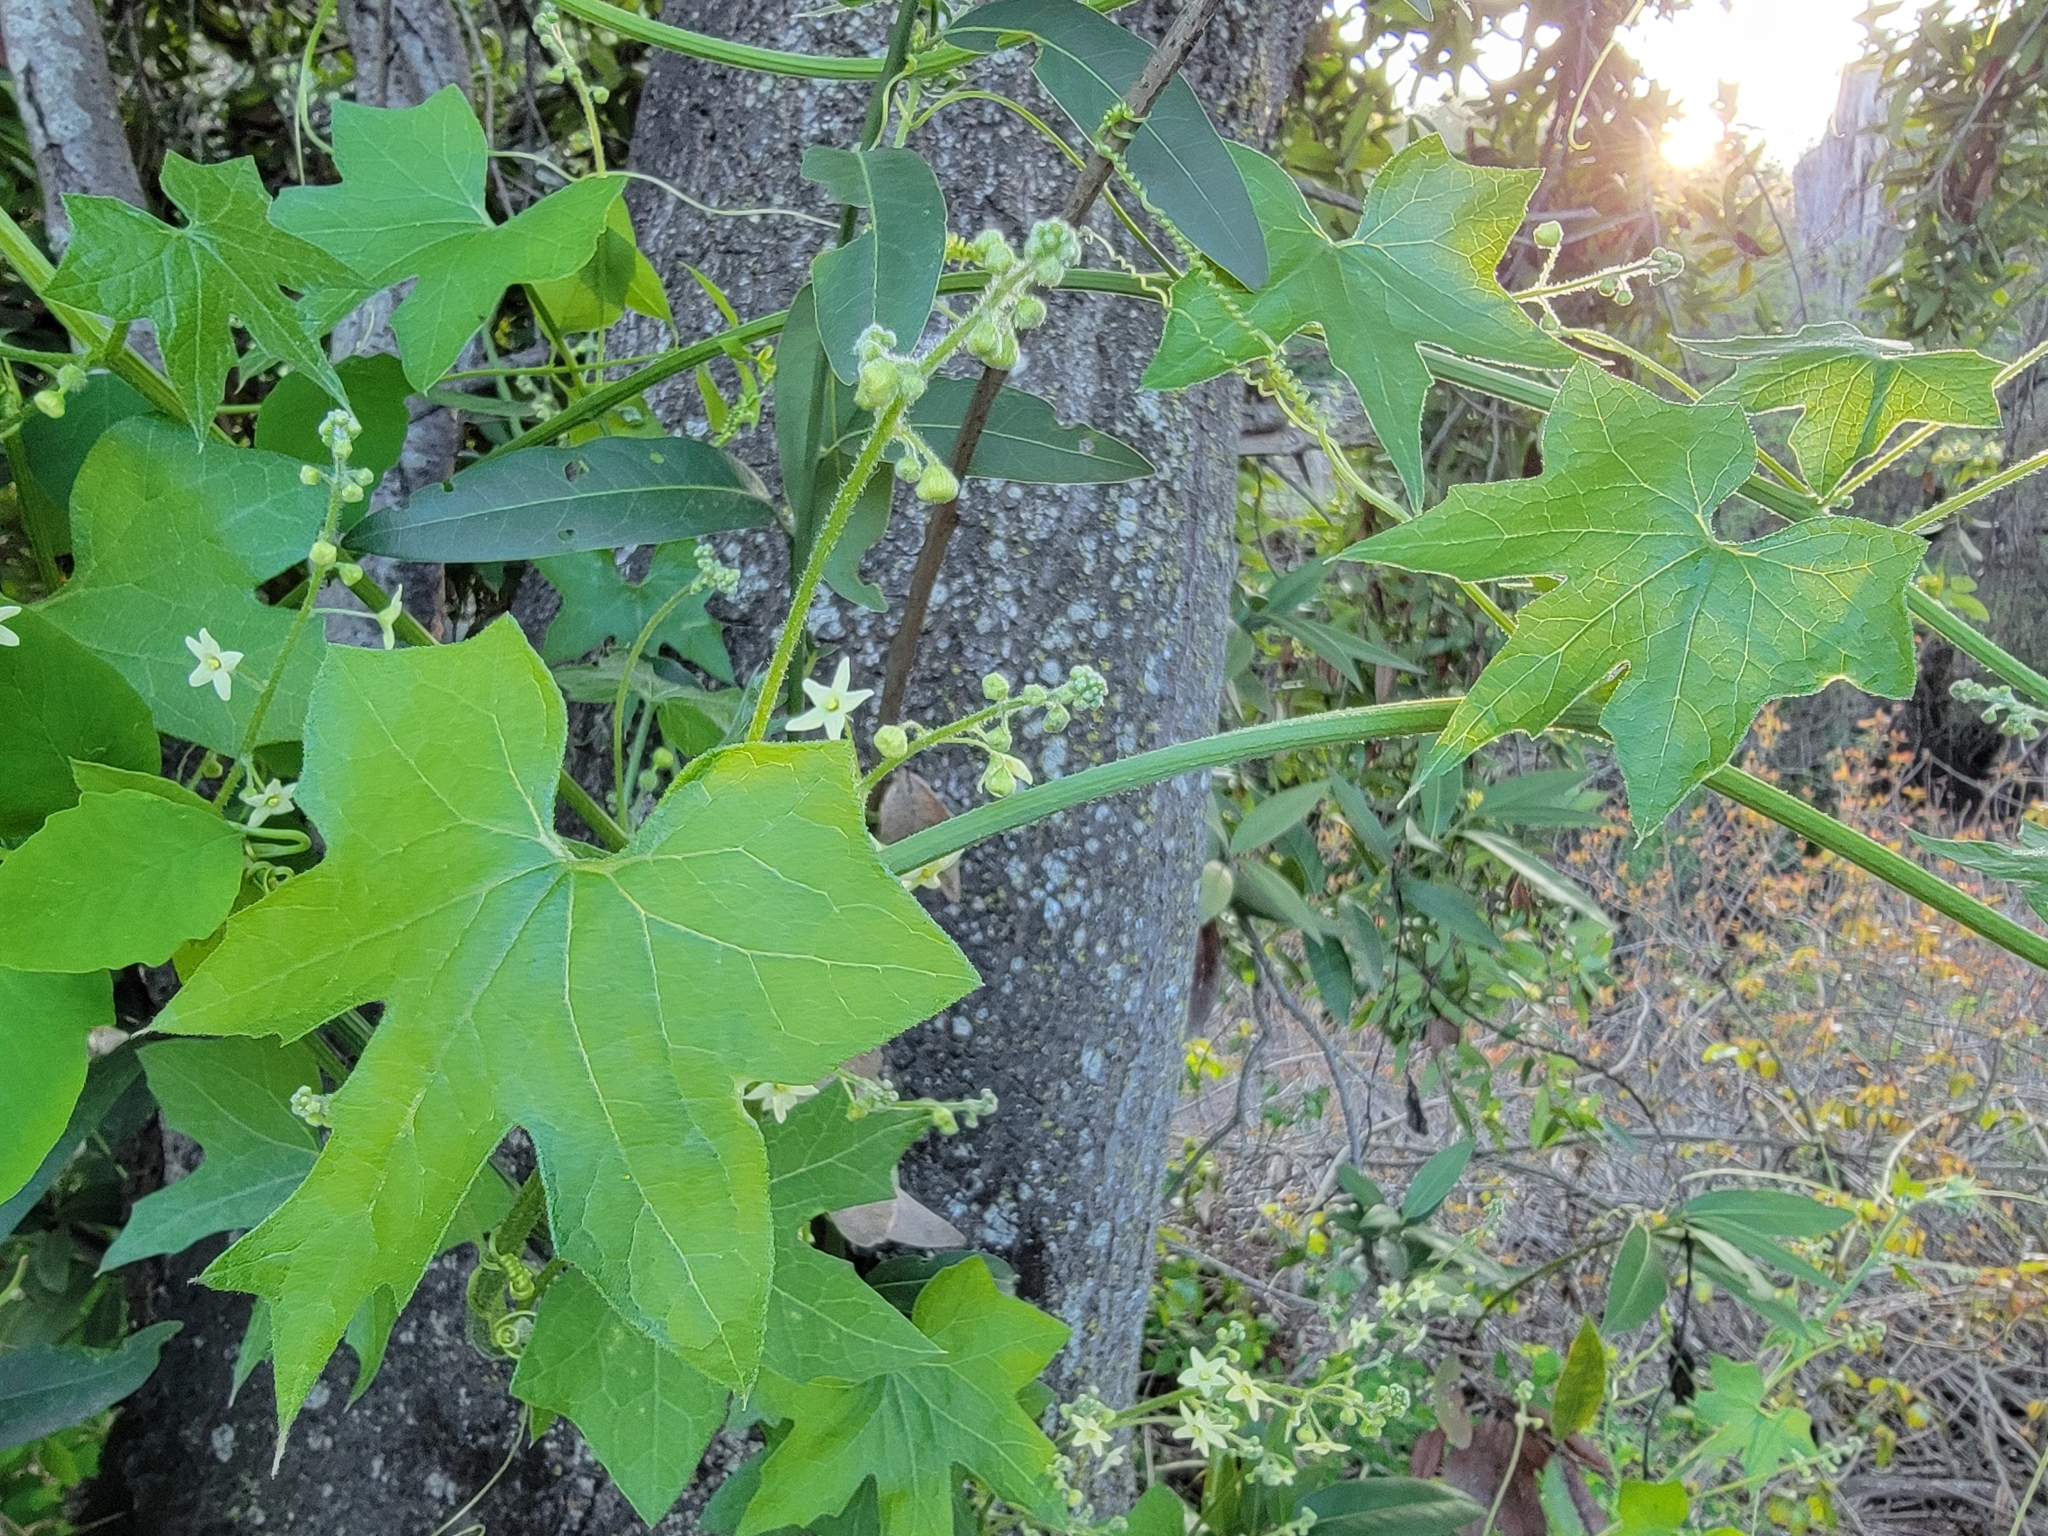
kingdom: Plantae
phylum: Tracheophyta
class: Magnoliopsida
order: Cucurbitales
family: Cucurbitaceae
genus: Marah
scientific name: Marah fabacea
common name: California manroot
